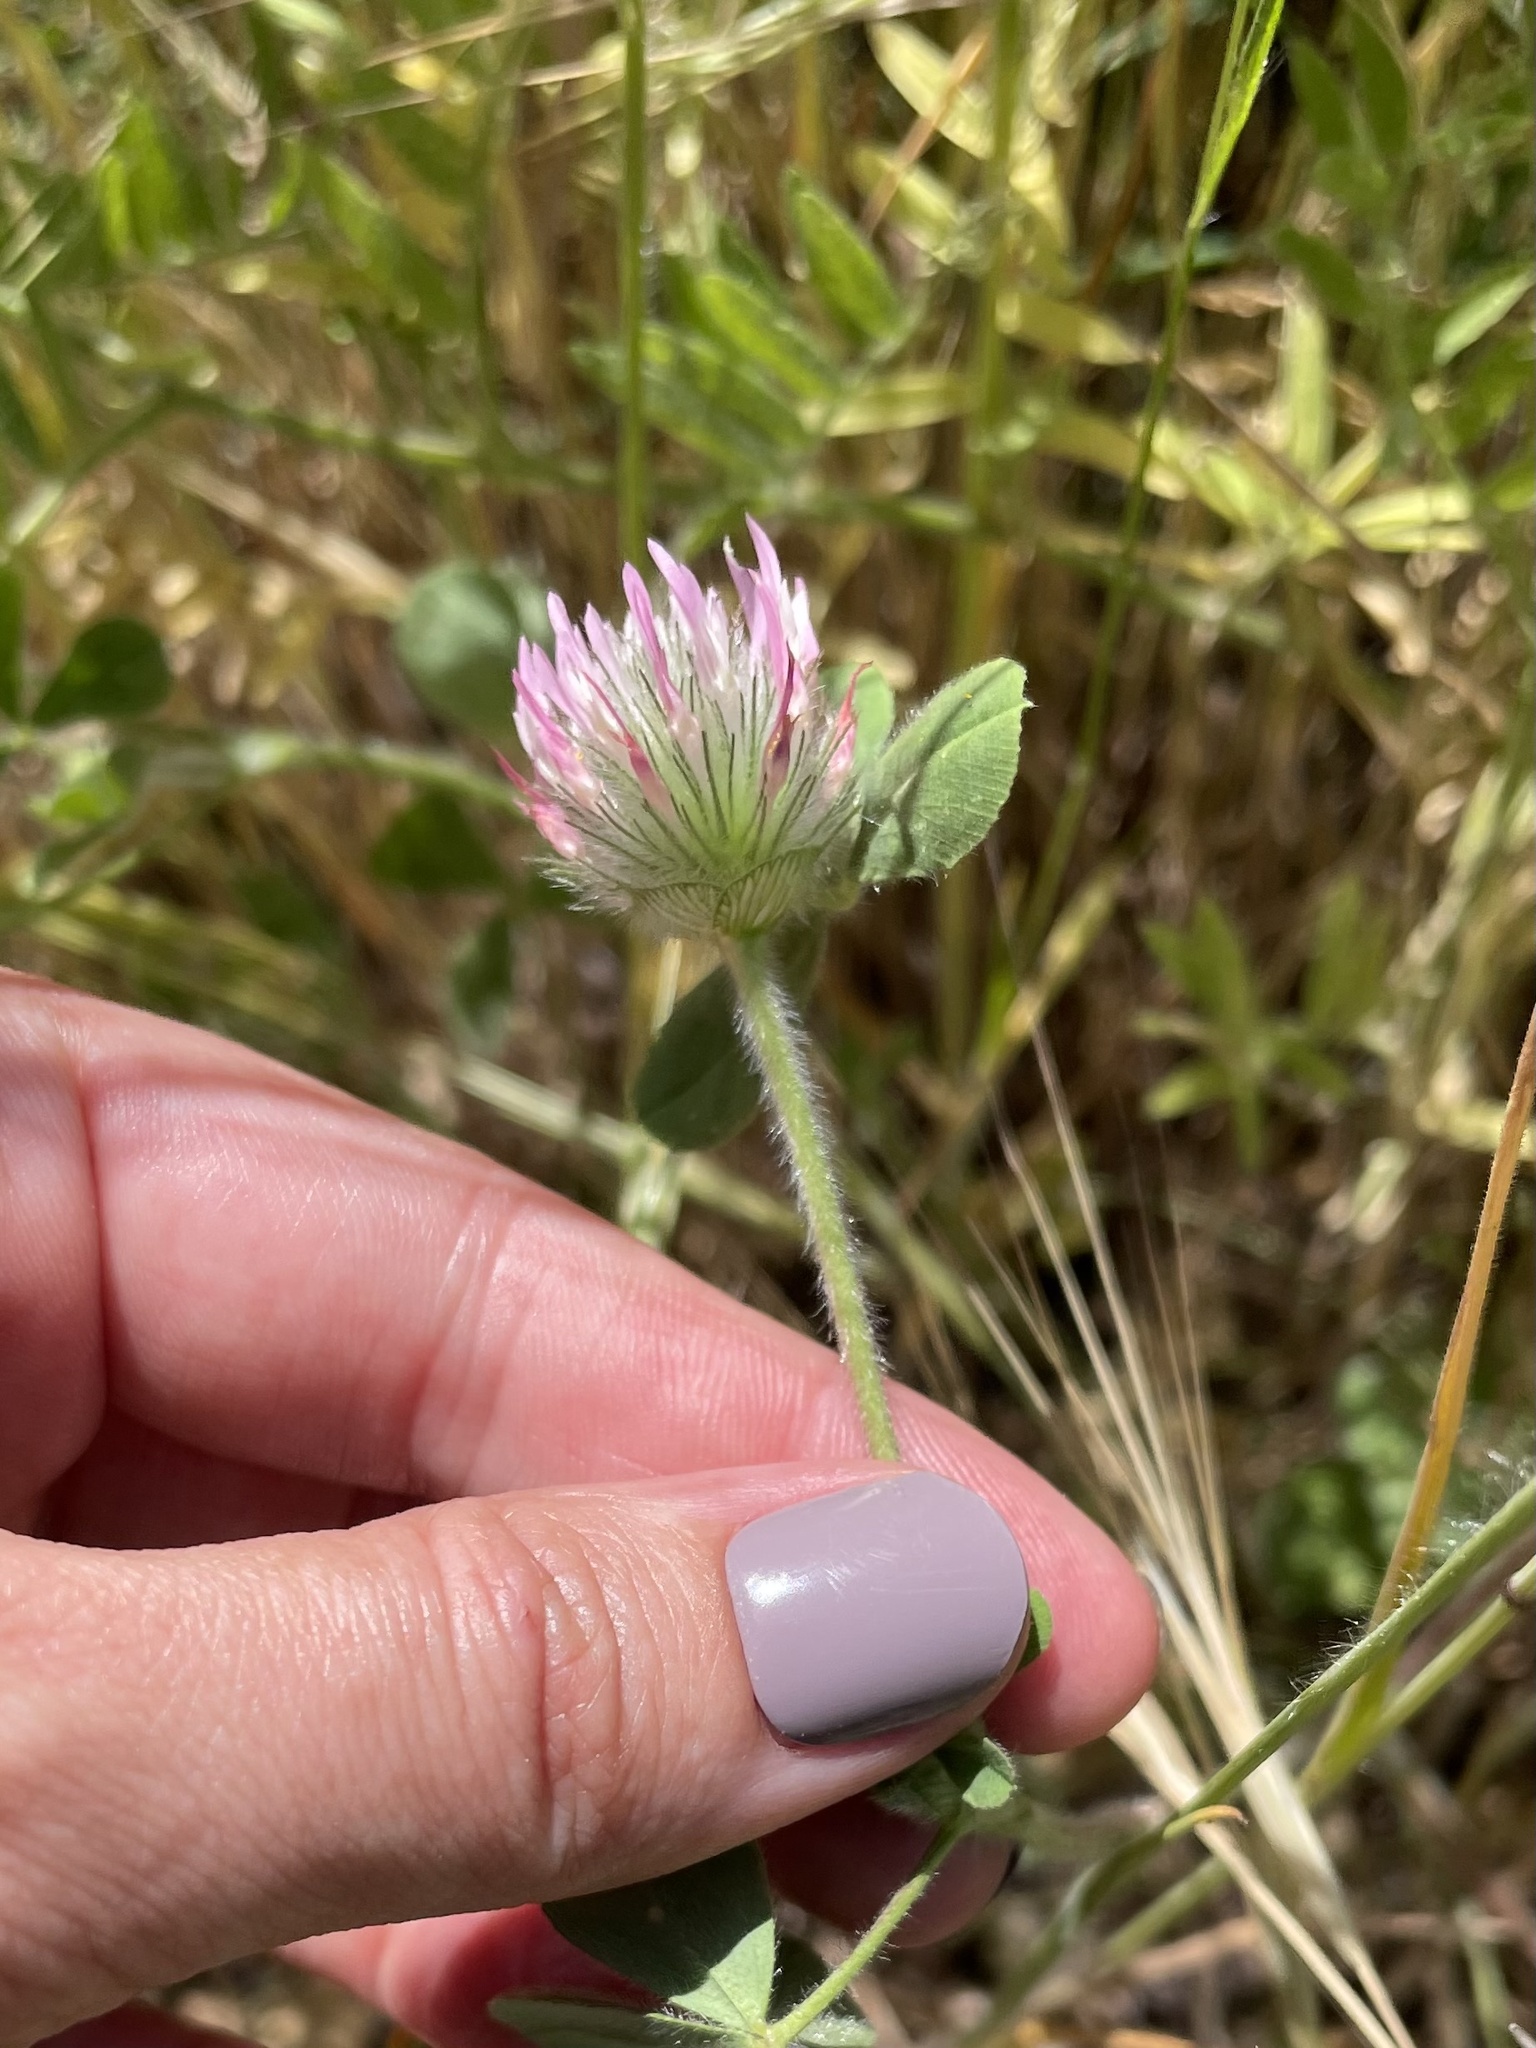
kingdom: Plantae
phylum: Tracheophyta
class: Magnoliopsida
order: Fabales
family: Fabaceae
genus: Trifolium
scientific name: Trifolium hirtum
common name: Rose clover
